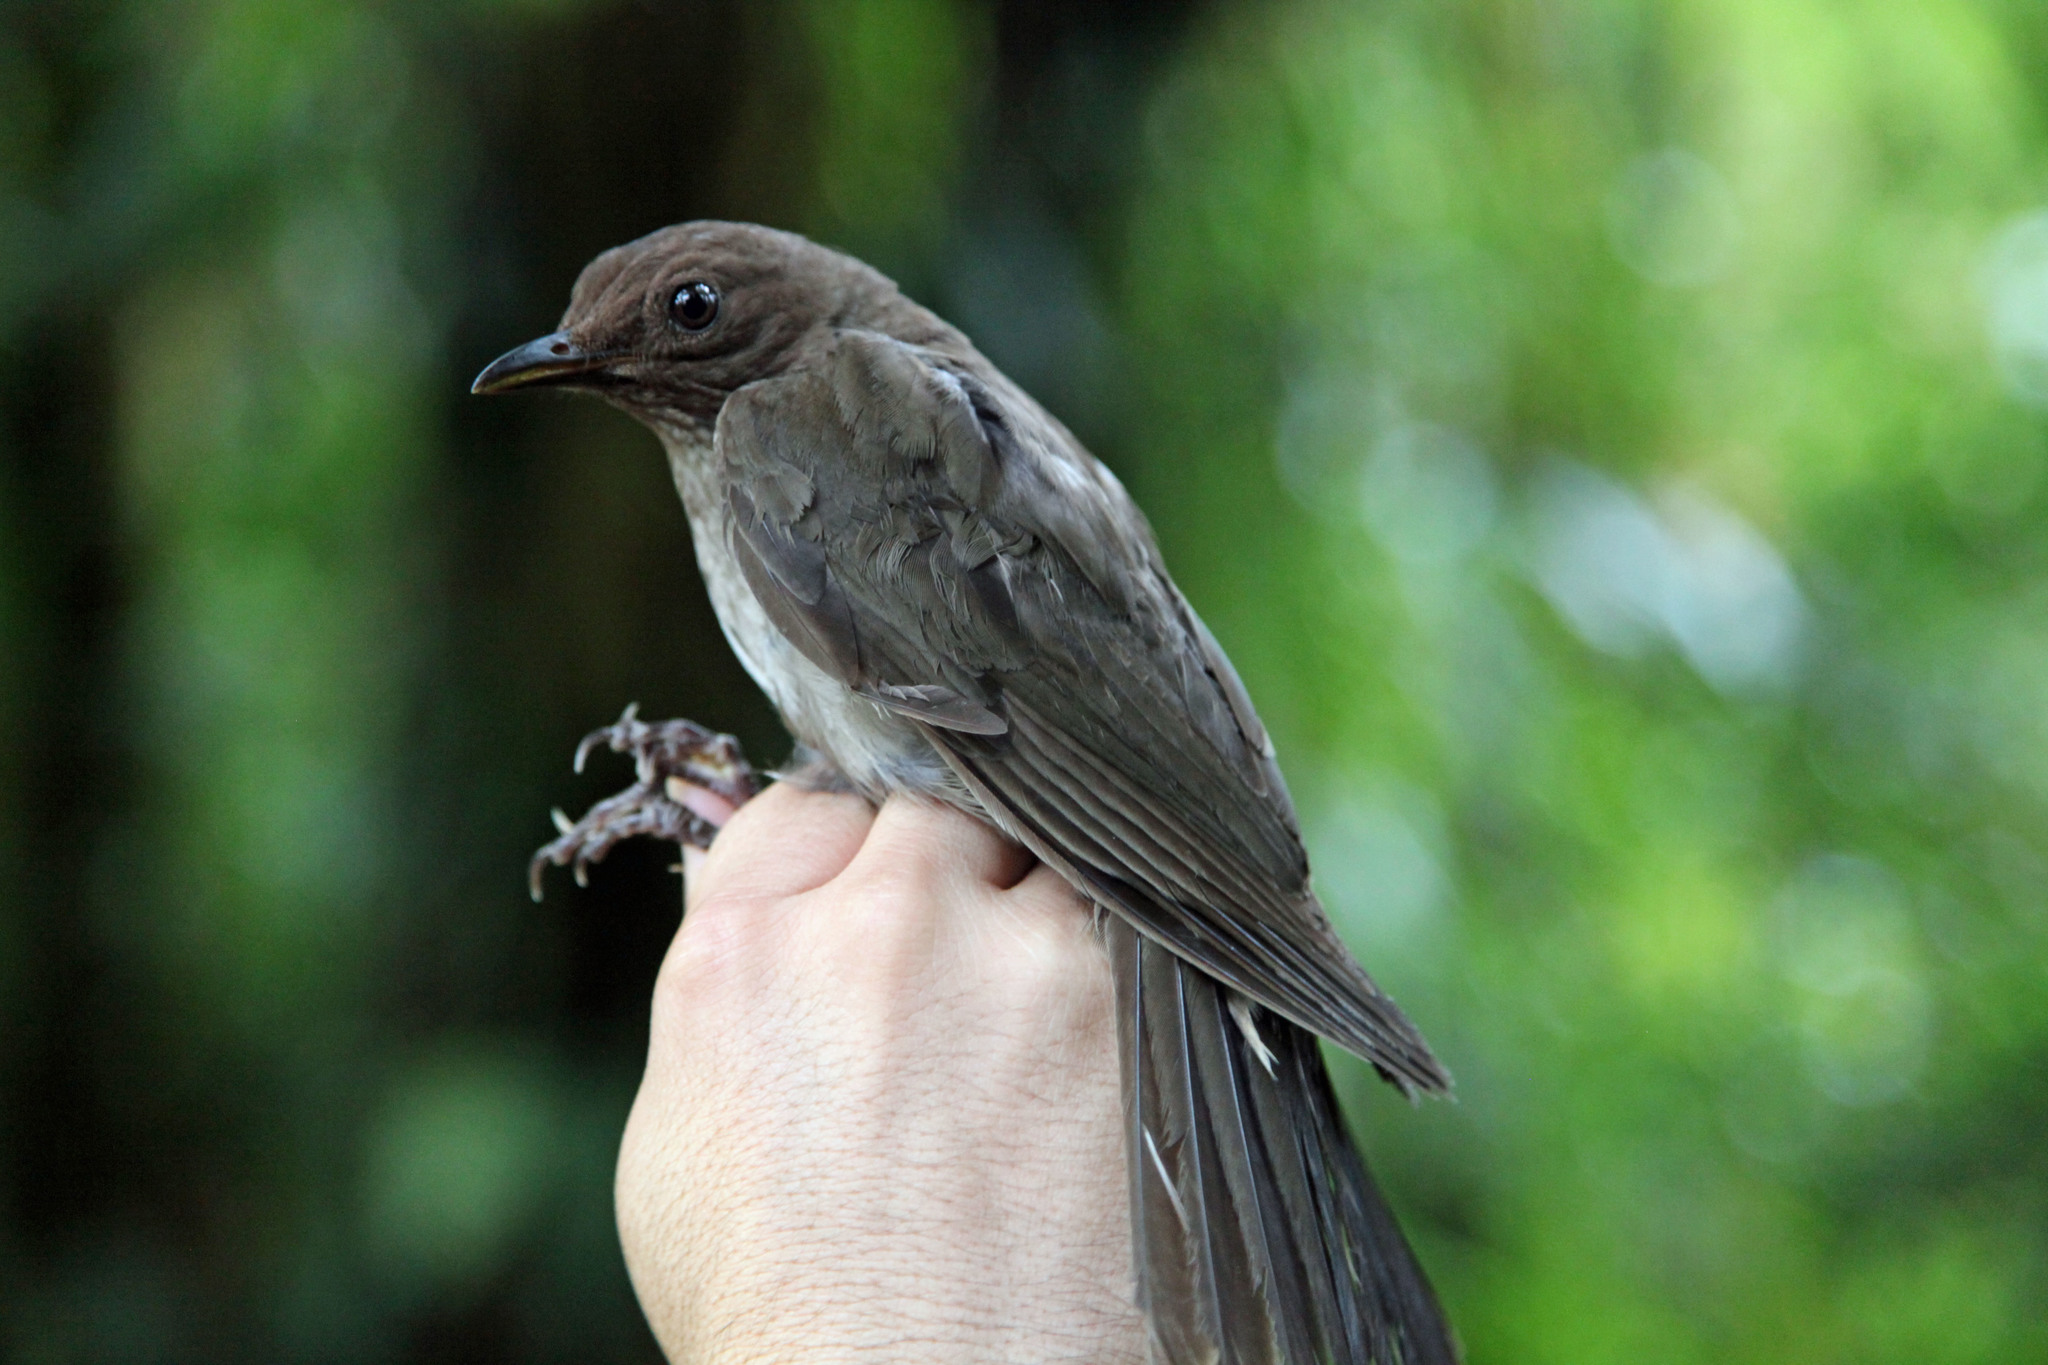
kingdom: Animalia
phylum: Chordata
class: Aves
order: Passeriformes
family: Turdidae
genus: Turdus
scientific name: Turdus plebejus
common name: Mountain thrush
